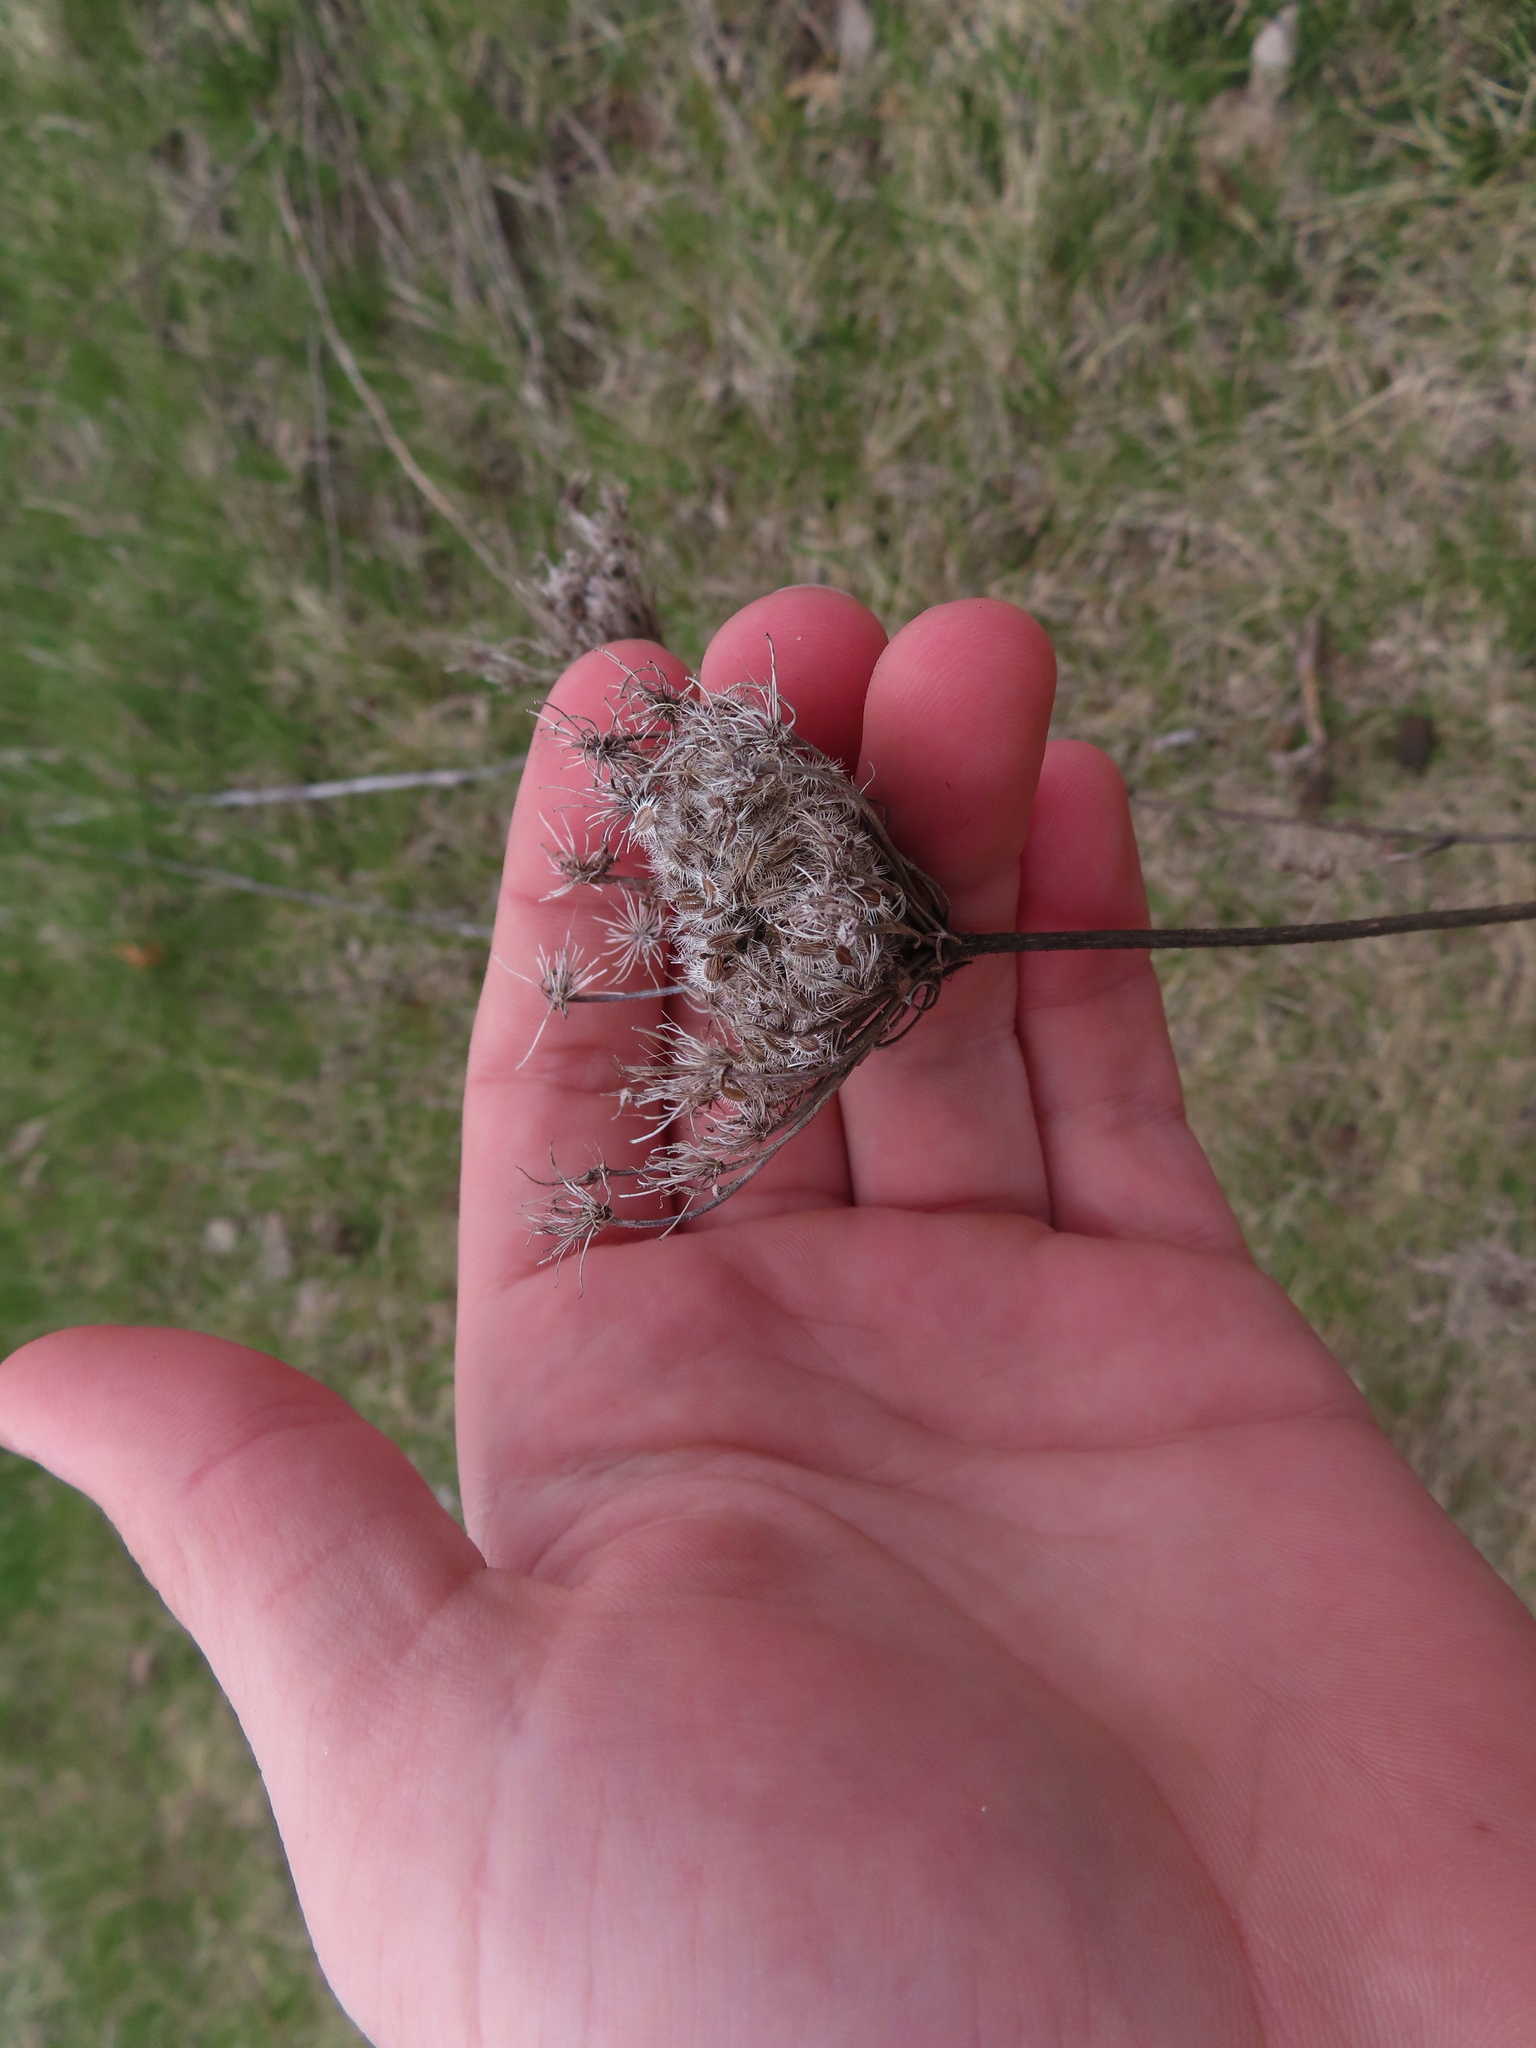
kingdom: Plantae
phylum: Tracheophyta
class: Magnoliopsida
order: Apiales
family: Apiaceae
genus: Daucus
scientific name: Daucus carota
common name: Wild carrot
